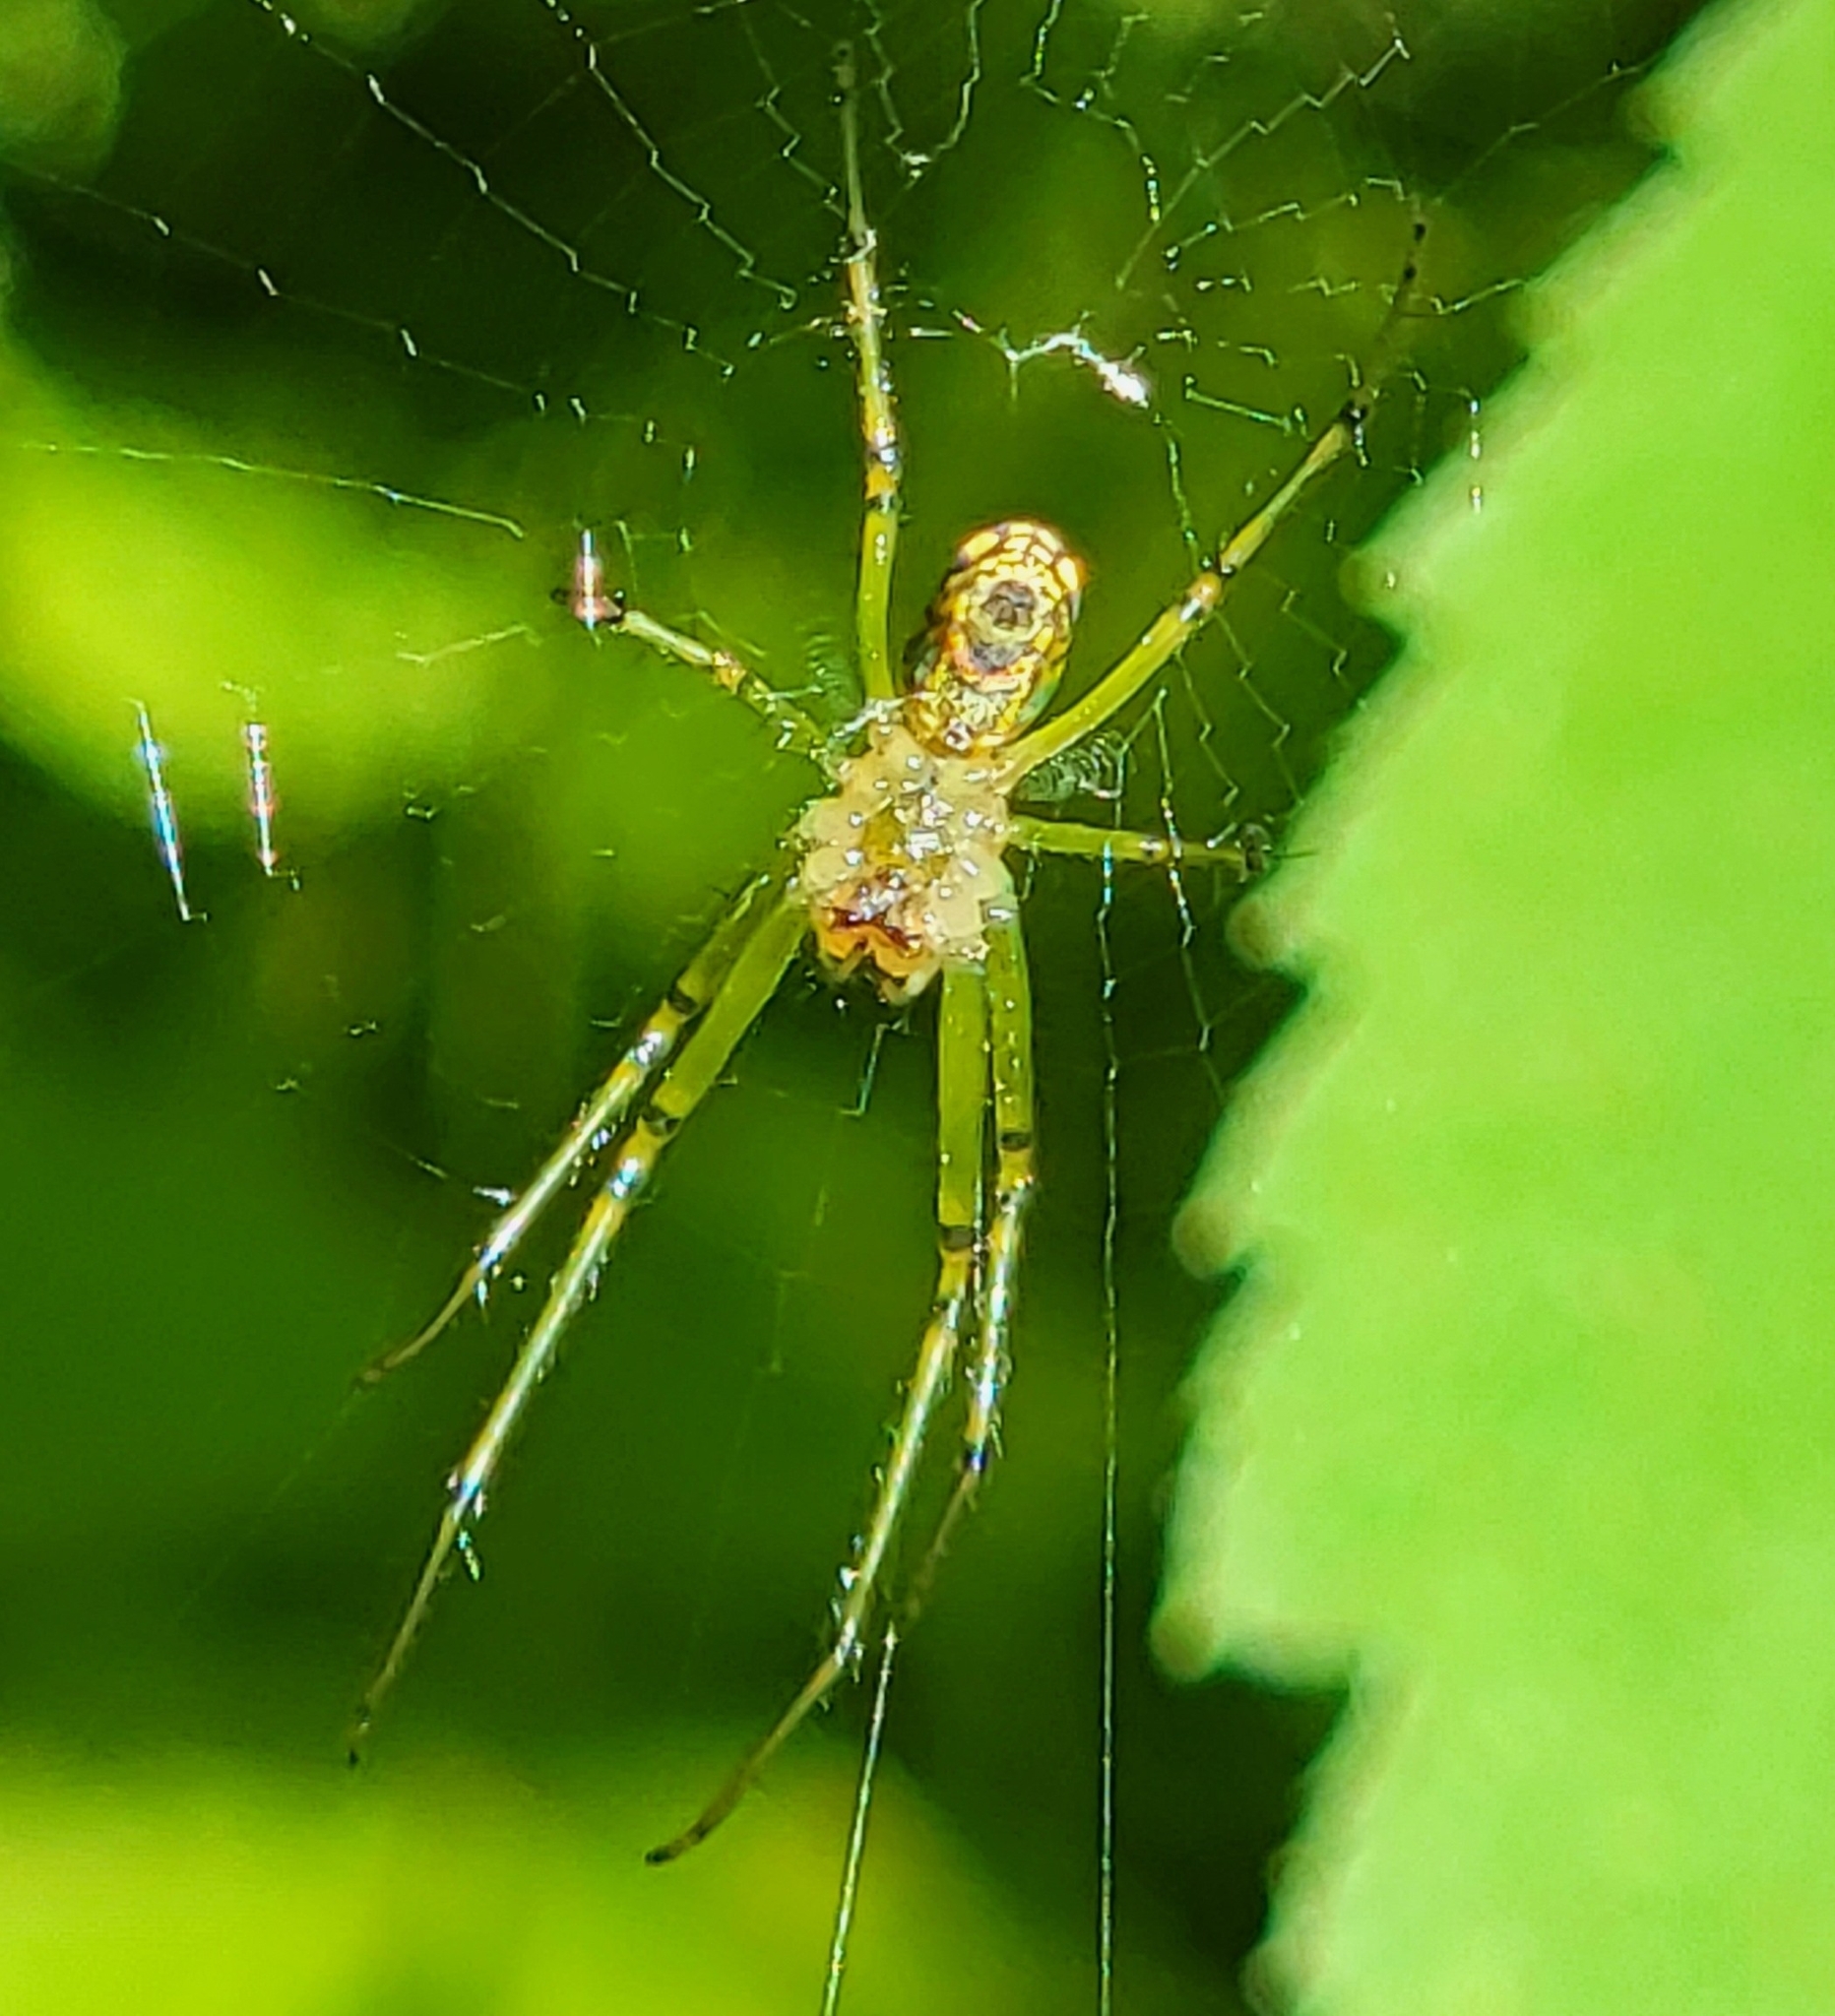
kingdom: Animalia
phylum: Arthropoda
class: Arachnida
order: Araneae
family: Tetragnathidae
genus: Leucauge
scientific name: Leucauge venusta
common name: Longjawed orb weavers
